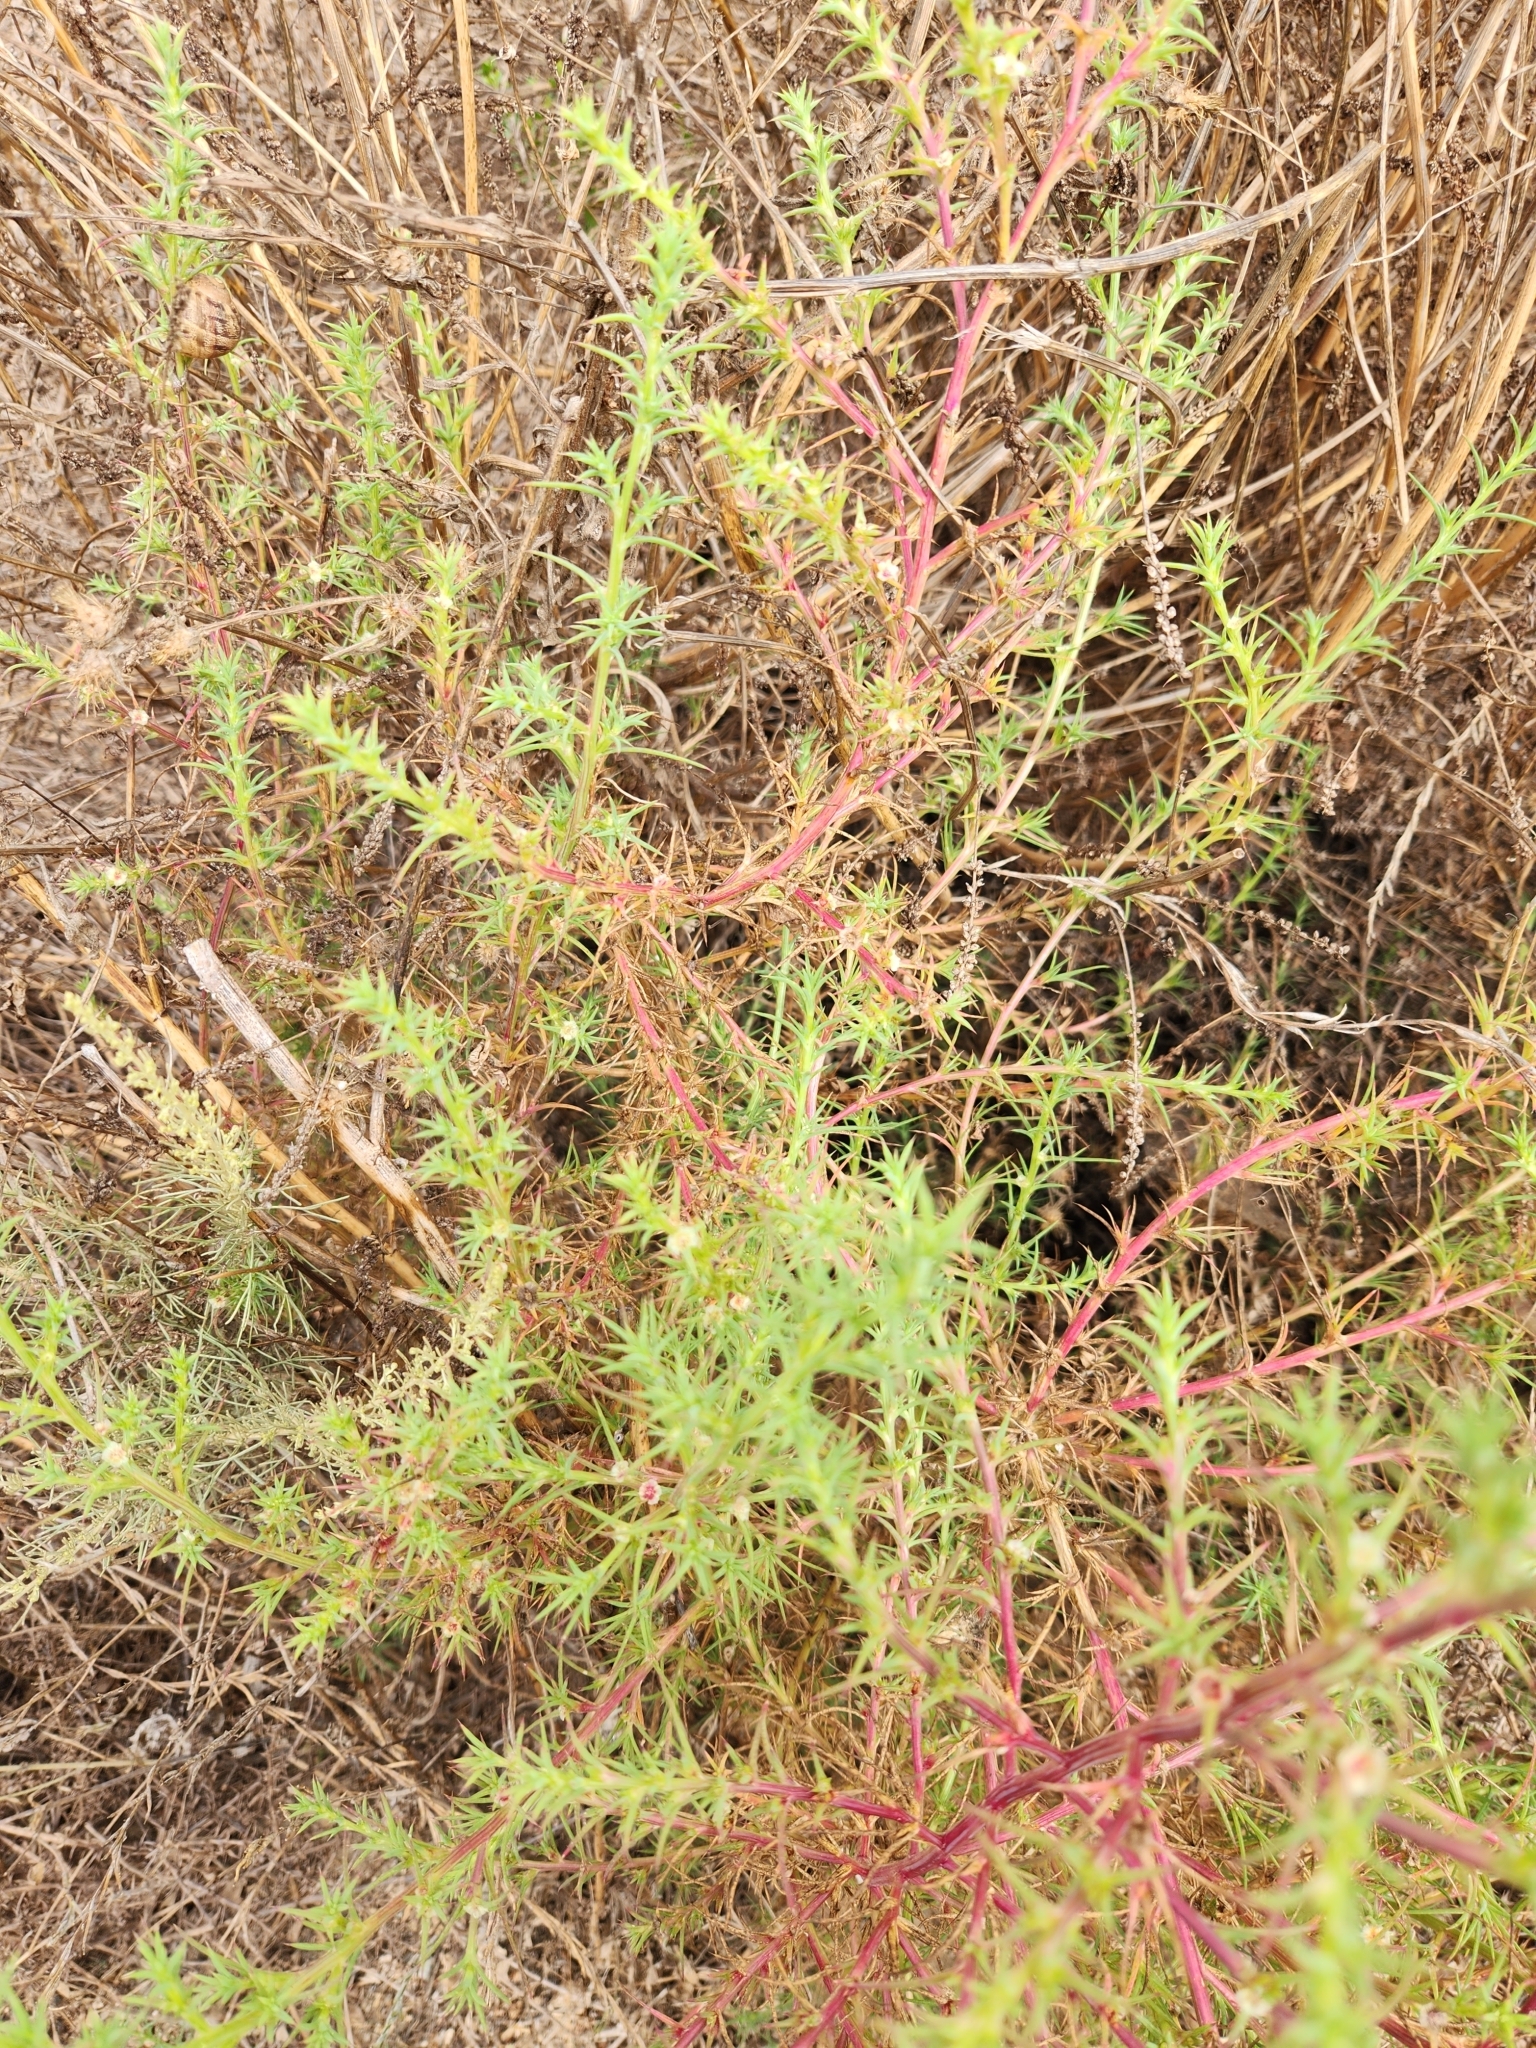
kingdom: Plantae
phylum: Tracheophyta
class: Magnoliopsida
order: Caryophyllales
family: Amaranthaceae
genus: Salsola
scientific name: Salsola australis
